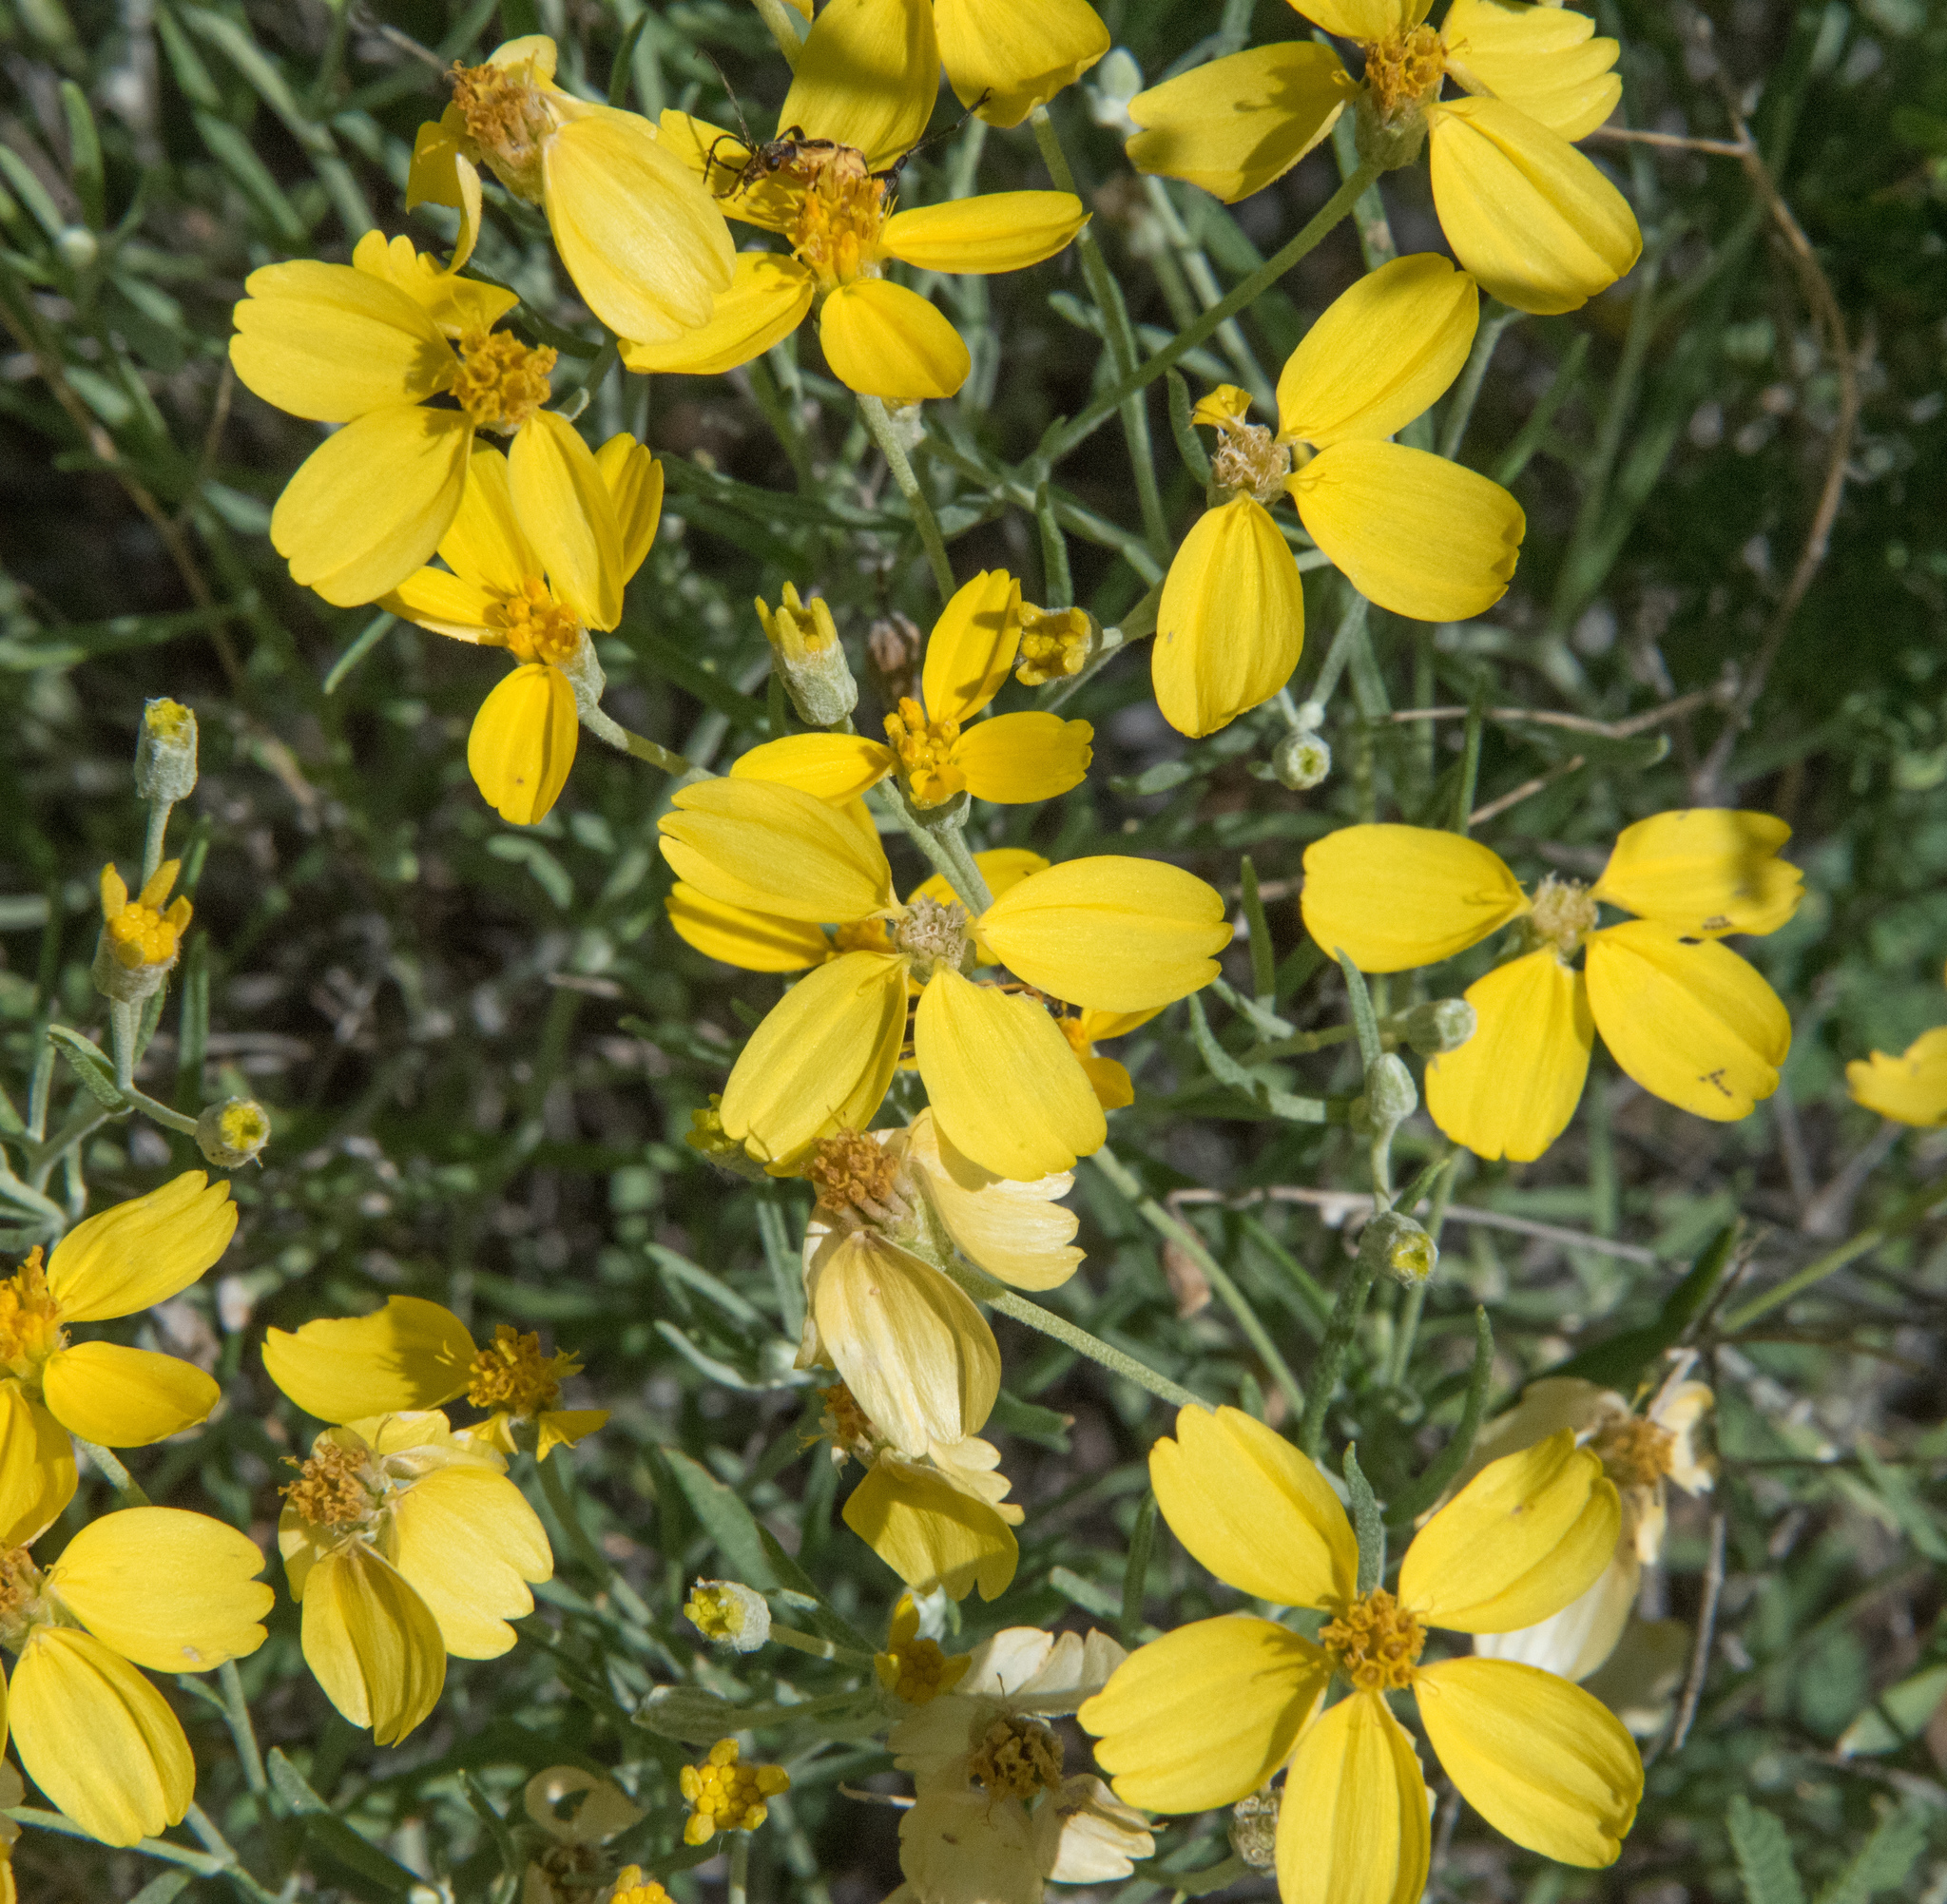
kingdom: Plantae
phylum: Tracheophyta
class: Magnoliopsida
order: Asterales
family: Asteraceae
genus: Psilostrophe
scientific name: Psilostrophe cooperi
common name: White-stem paper-flower
